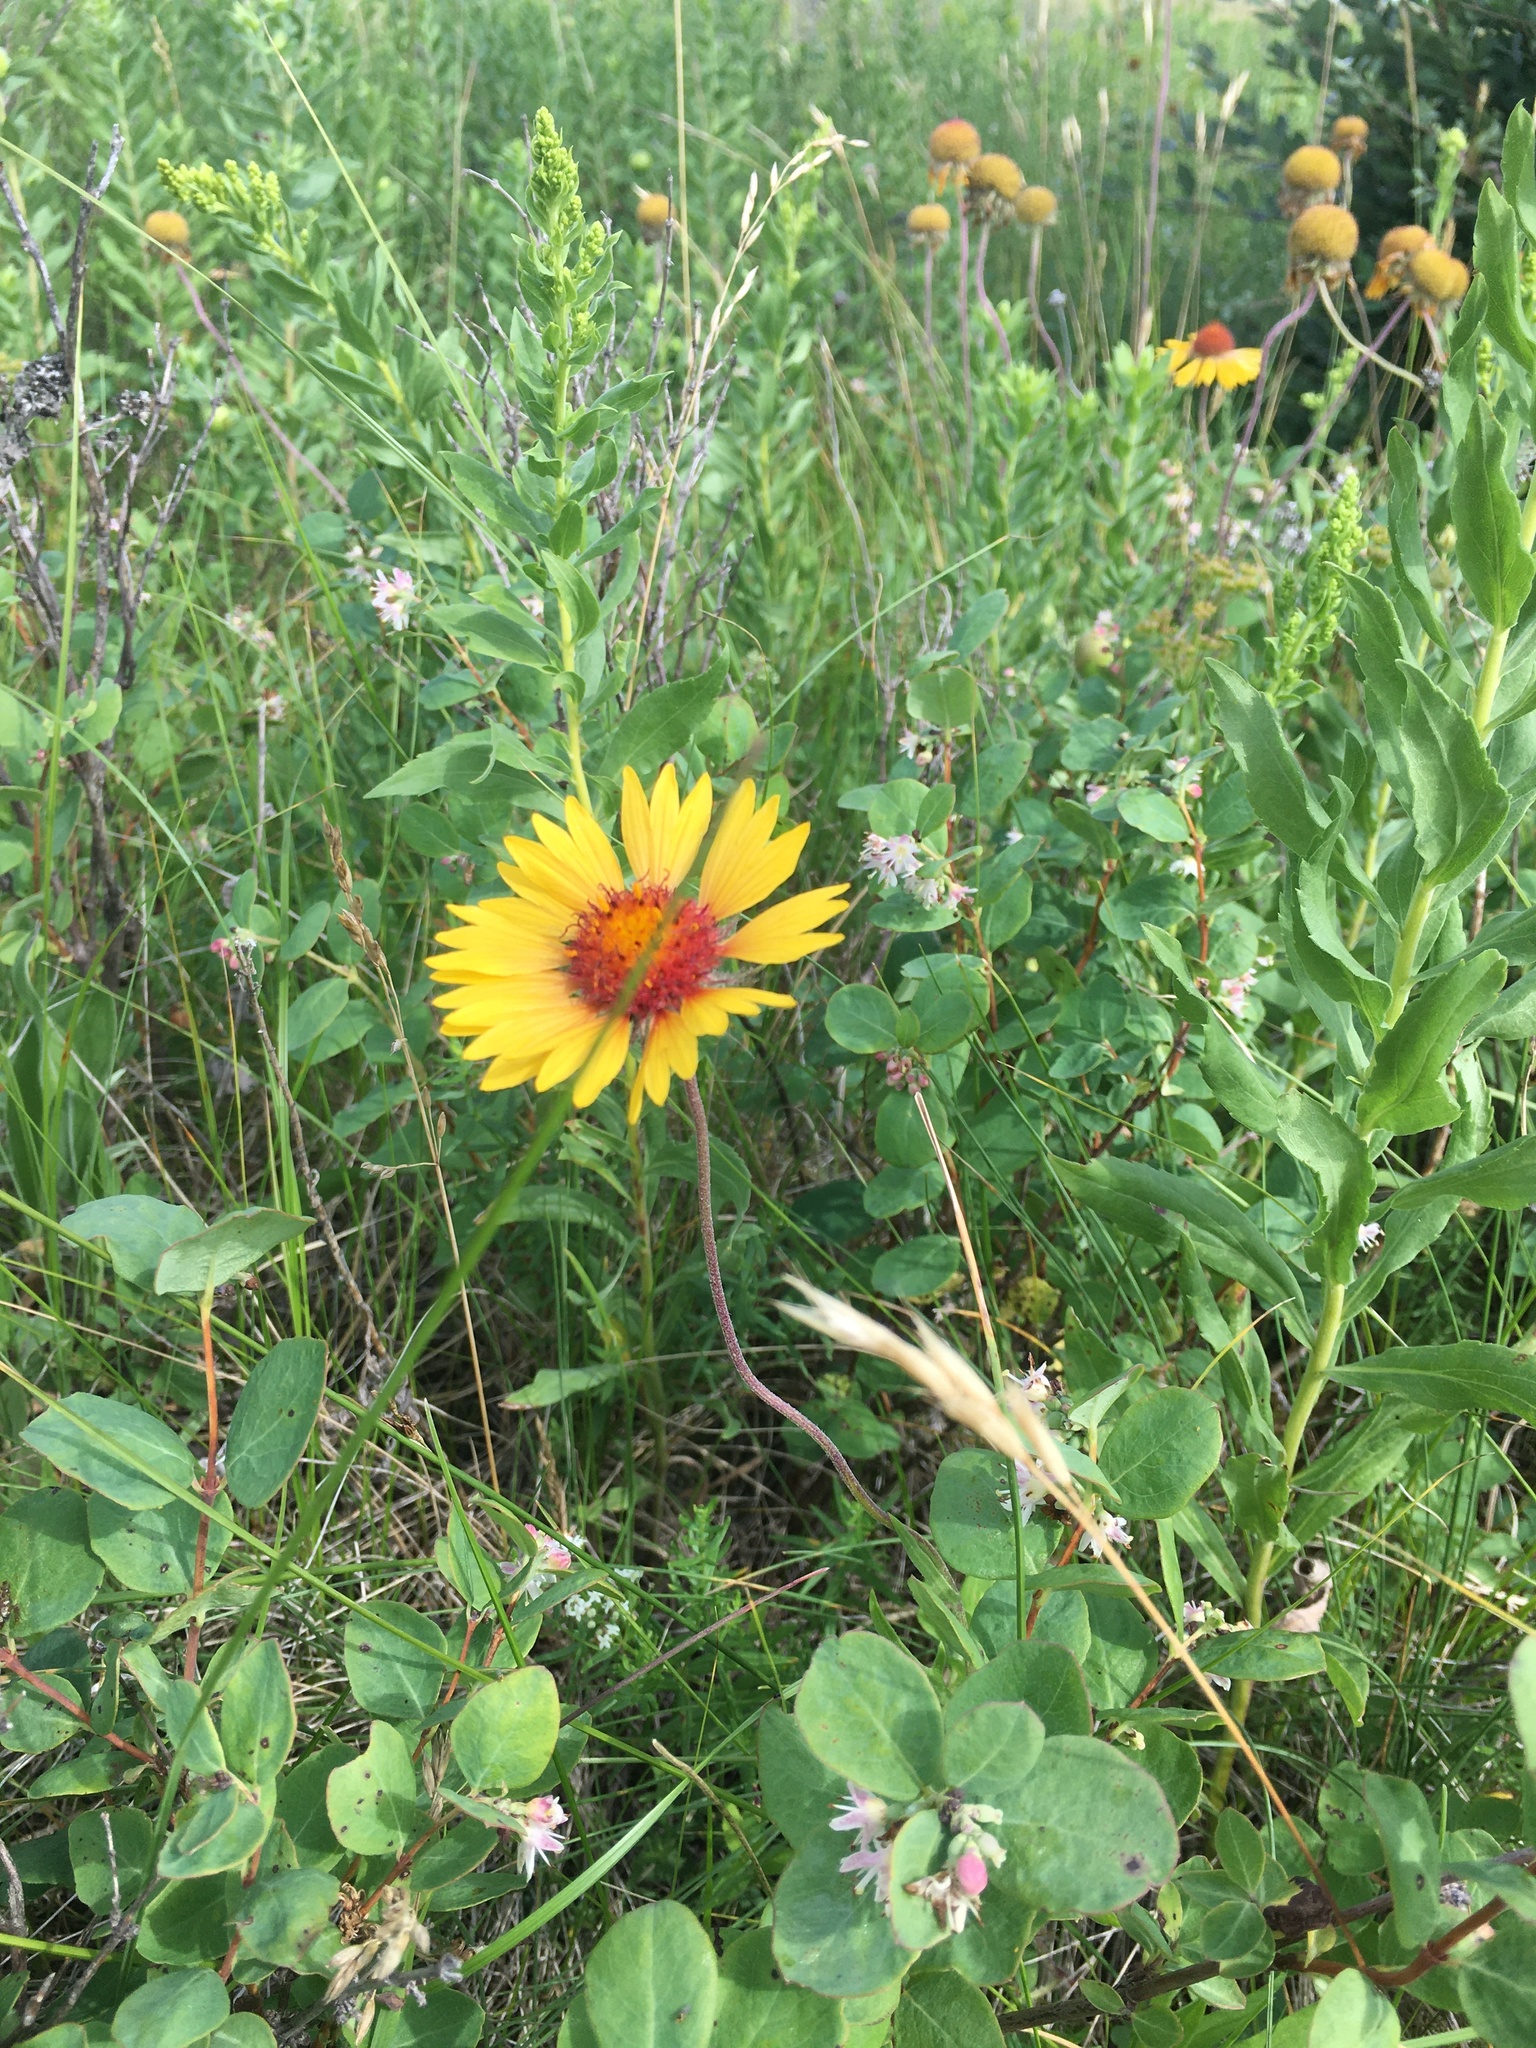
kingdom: Plantae
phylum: Tracheophyta
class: Magnoliopsida
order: Asterales
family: Asteraceae
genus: Gaillardia
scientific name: Gaillardia aristata
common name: Blanket-flower
